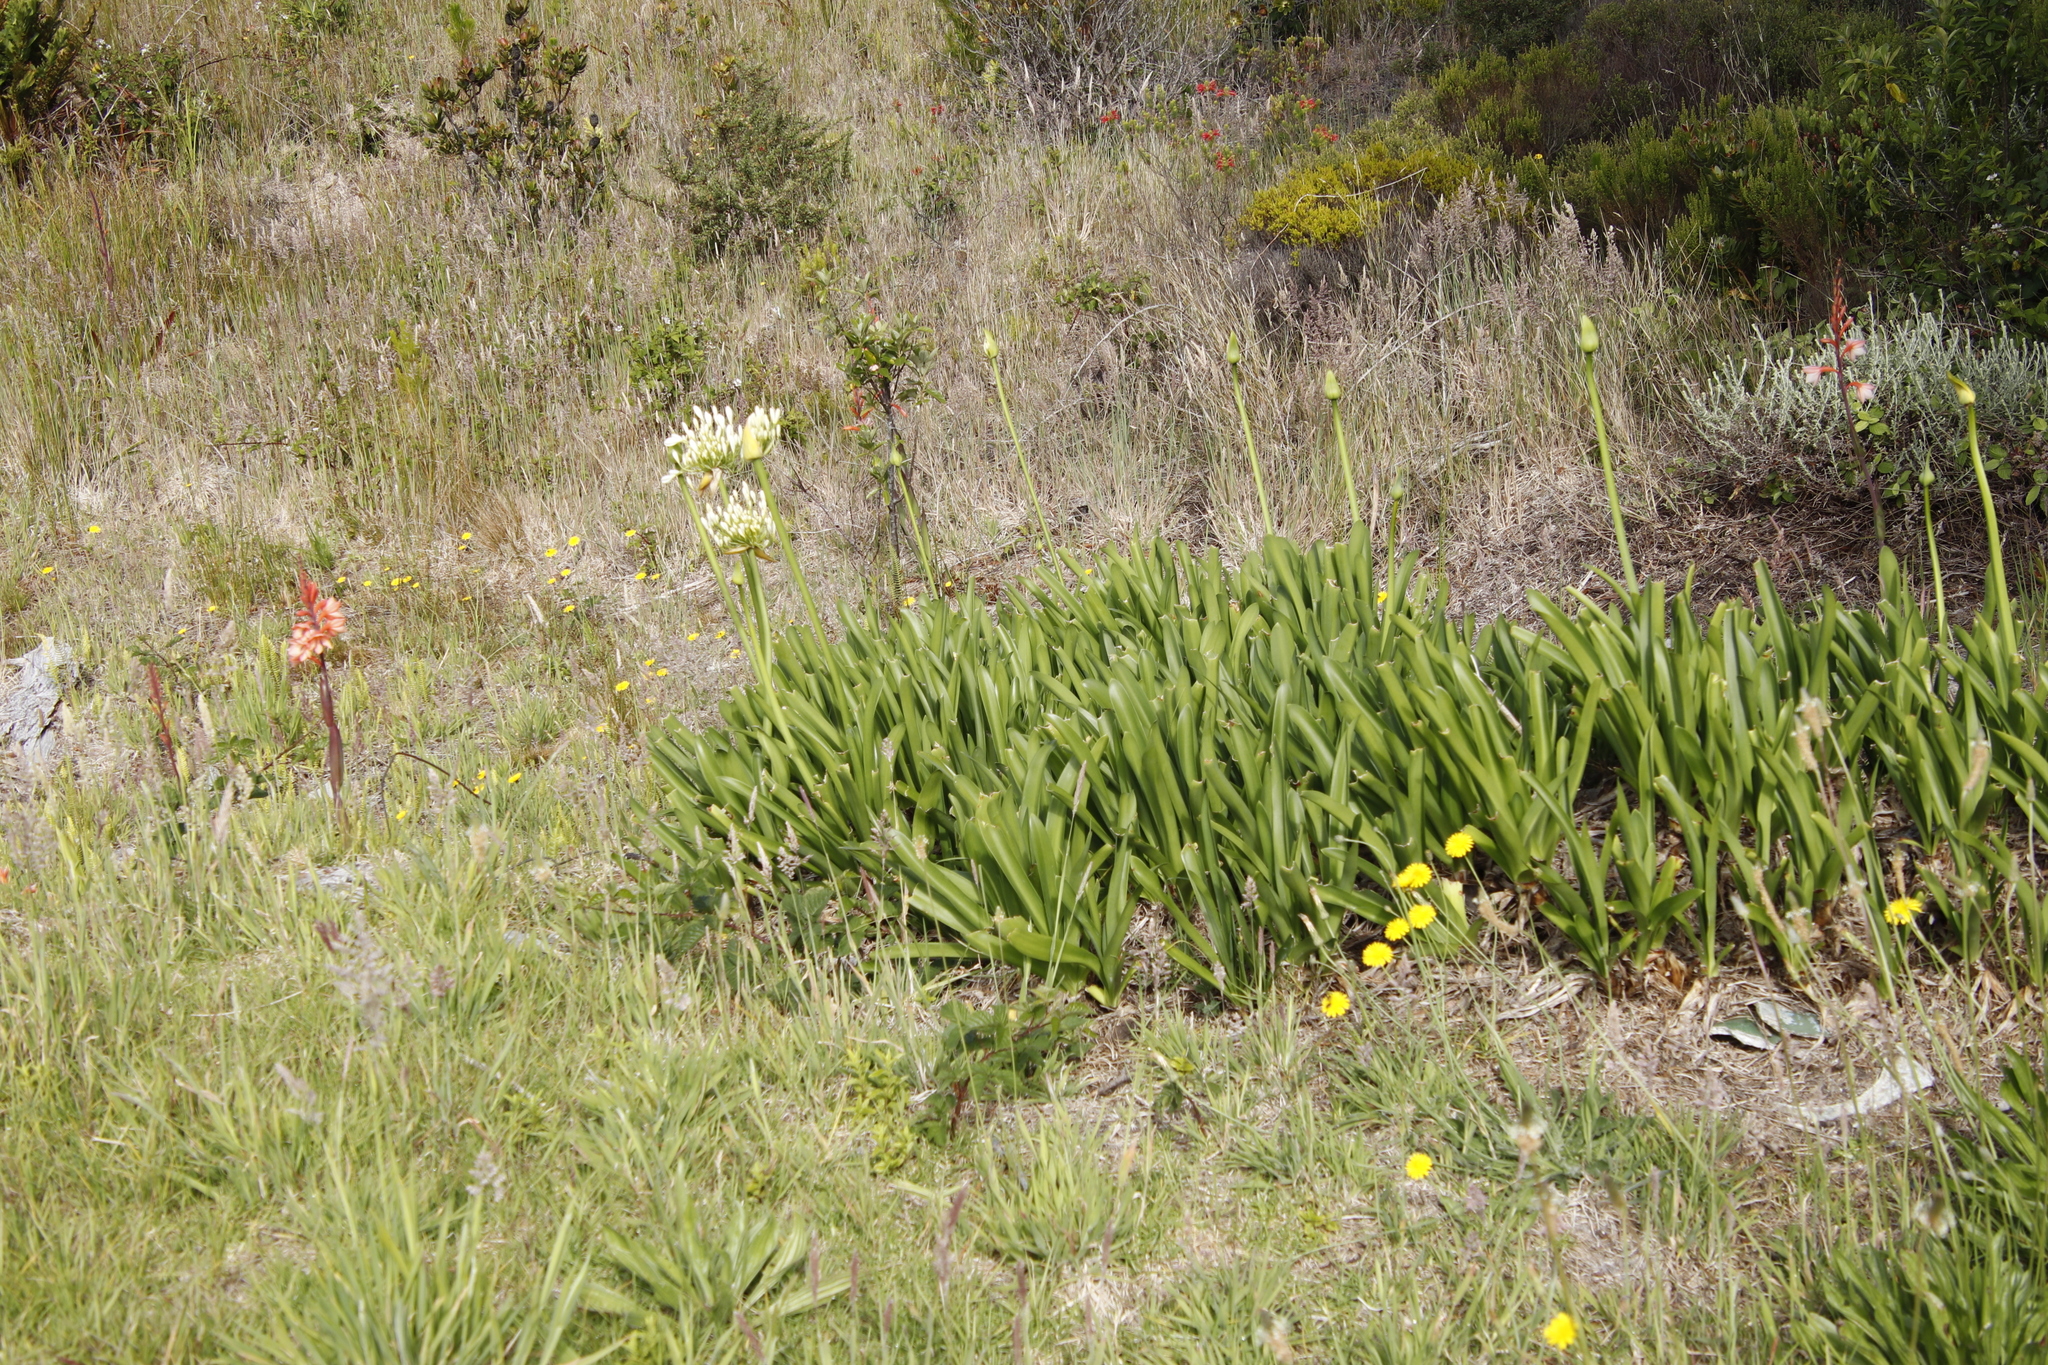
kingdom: Plantae
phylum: Tracheophyta
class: Liliopsida
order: Asparagales
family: Amaryllidaceae
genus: Agapanthus
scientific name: Agapanthus praecox
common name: African-lily
